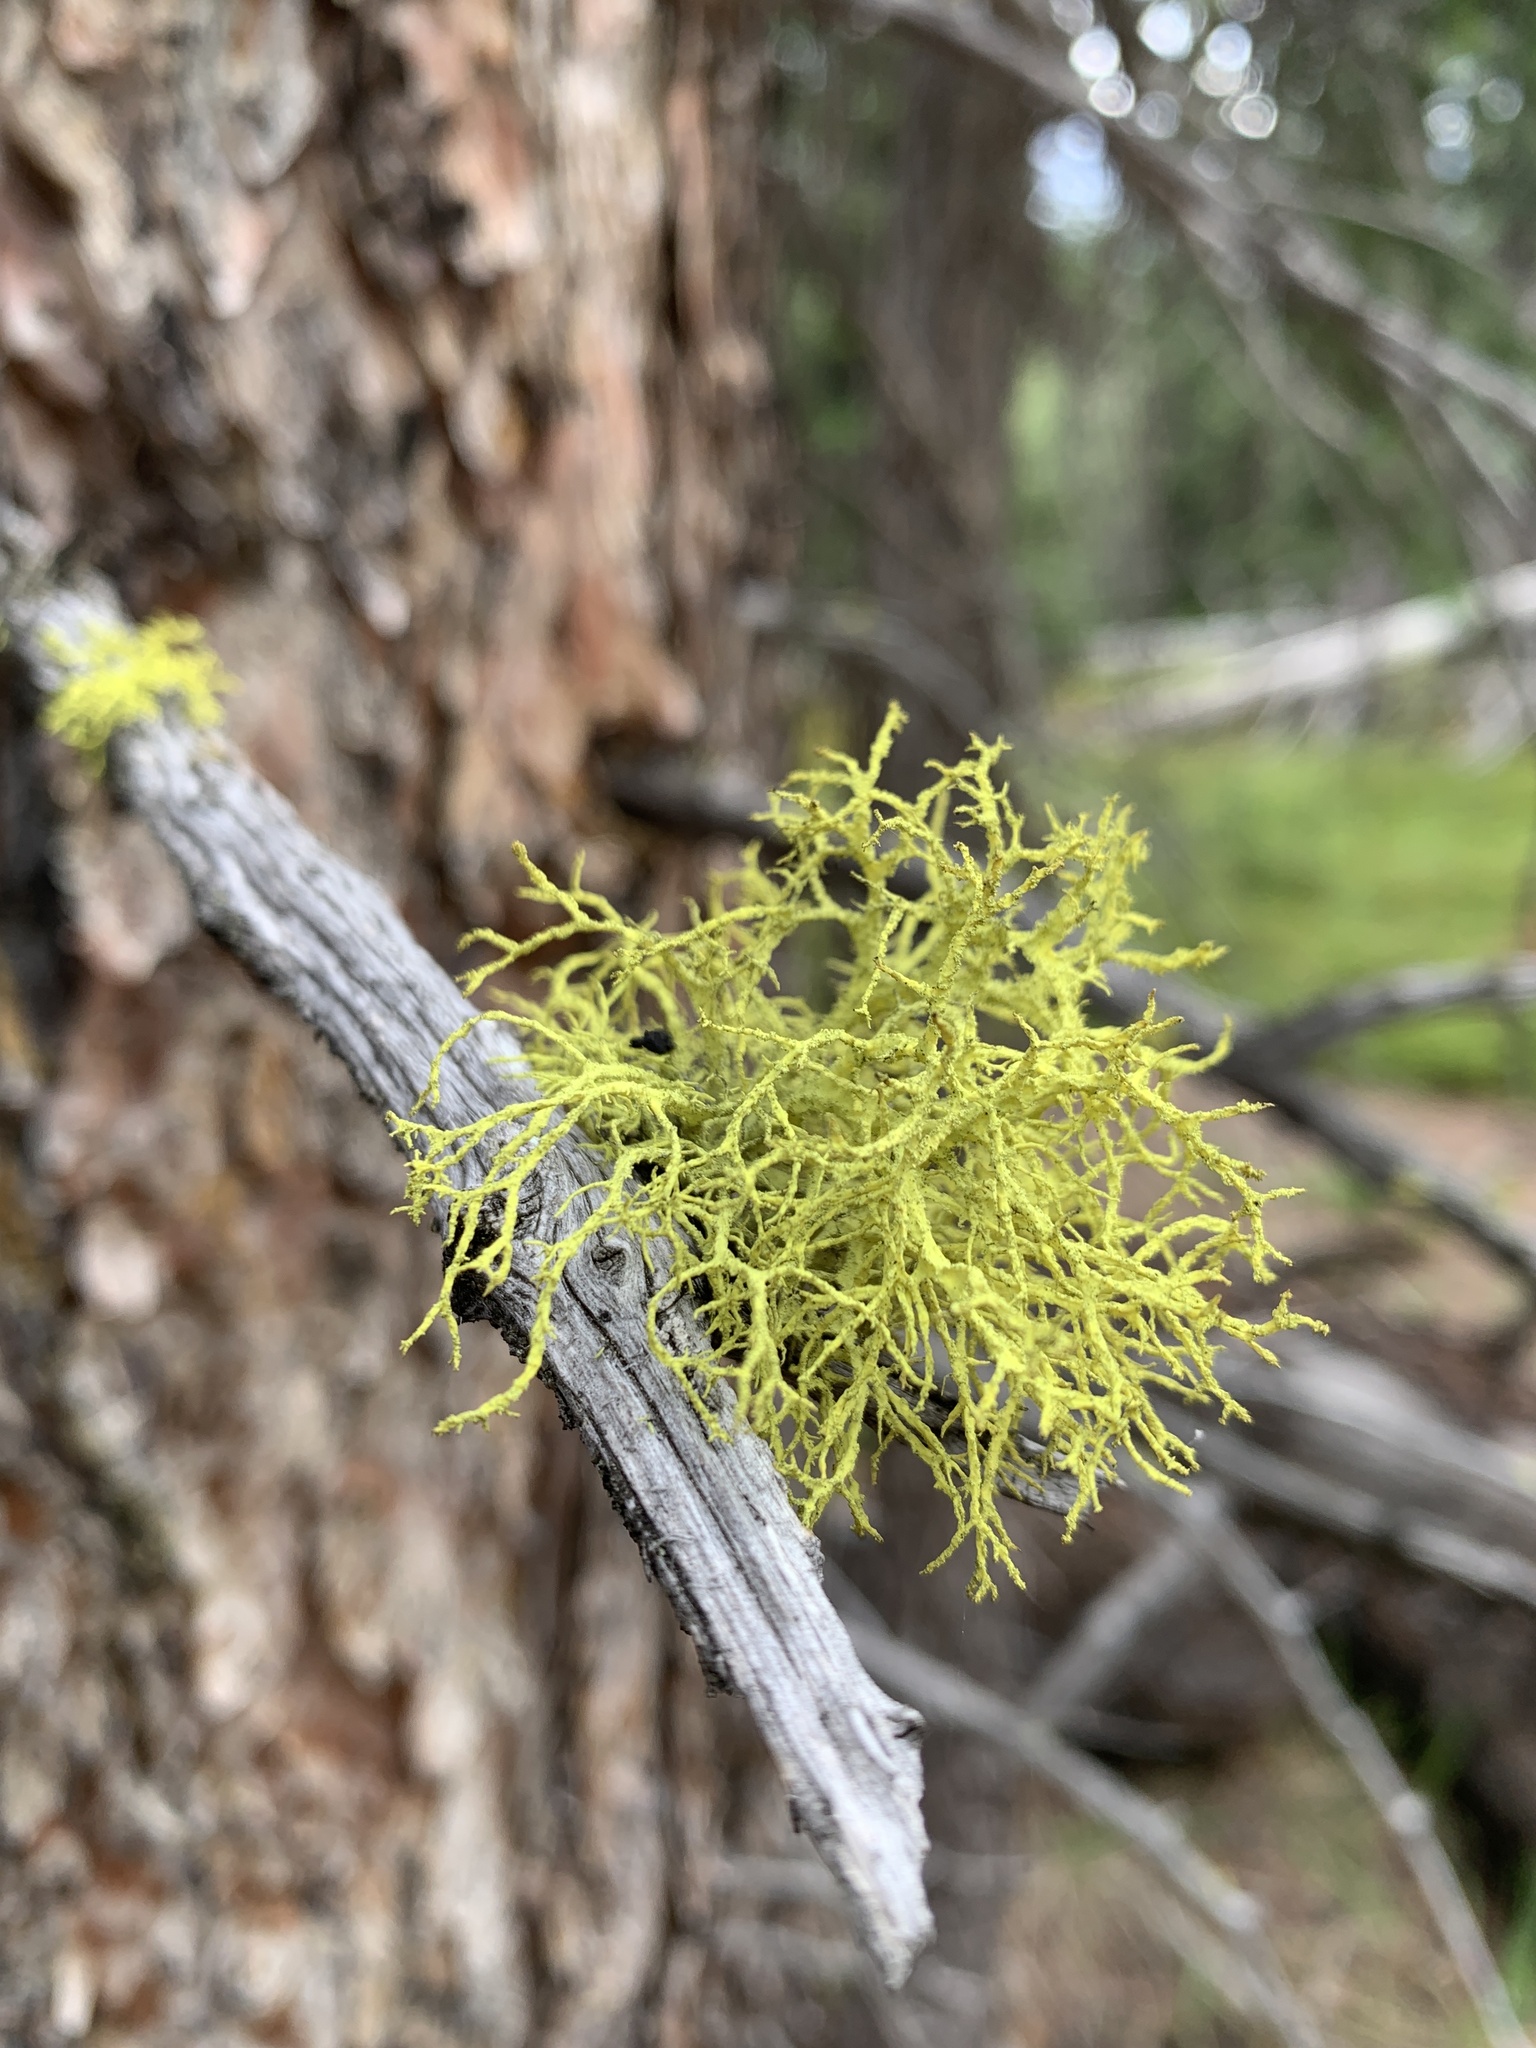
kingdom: Fungi
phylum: Ascomycota
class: Lecanoromycetes
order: Lecanorales
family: Parmeliaceae
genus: Letharia
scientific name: Letharia vulpina
